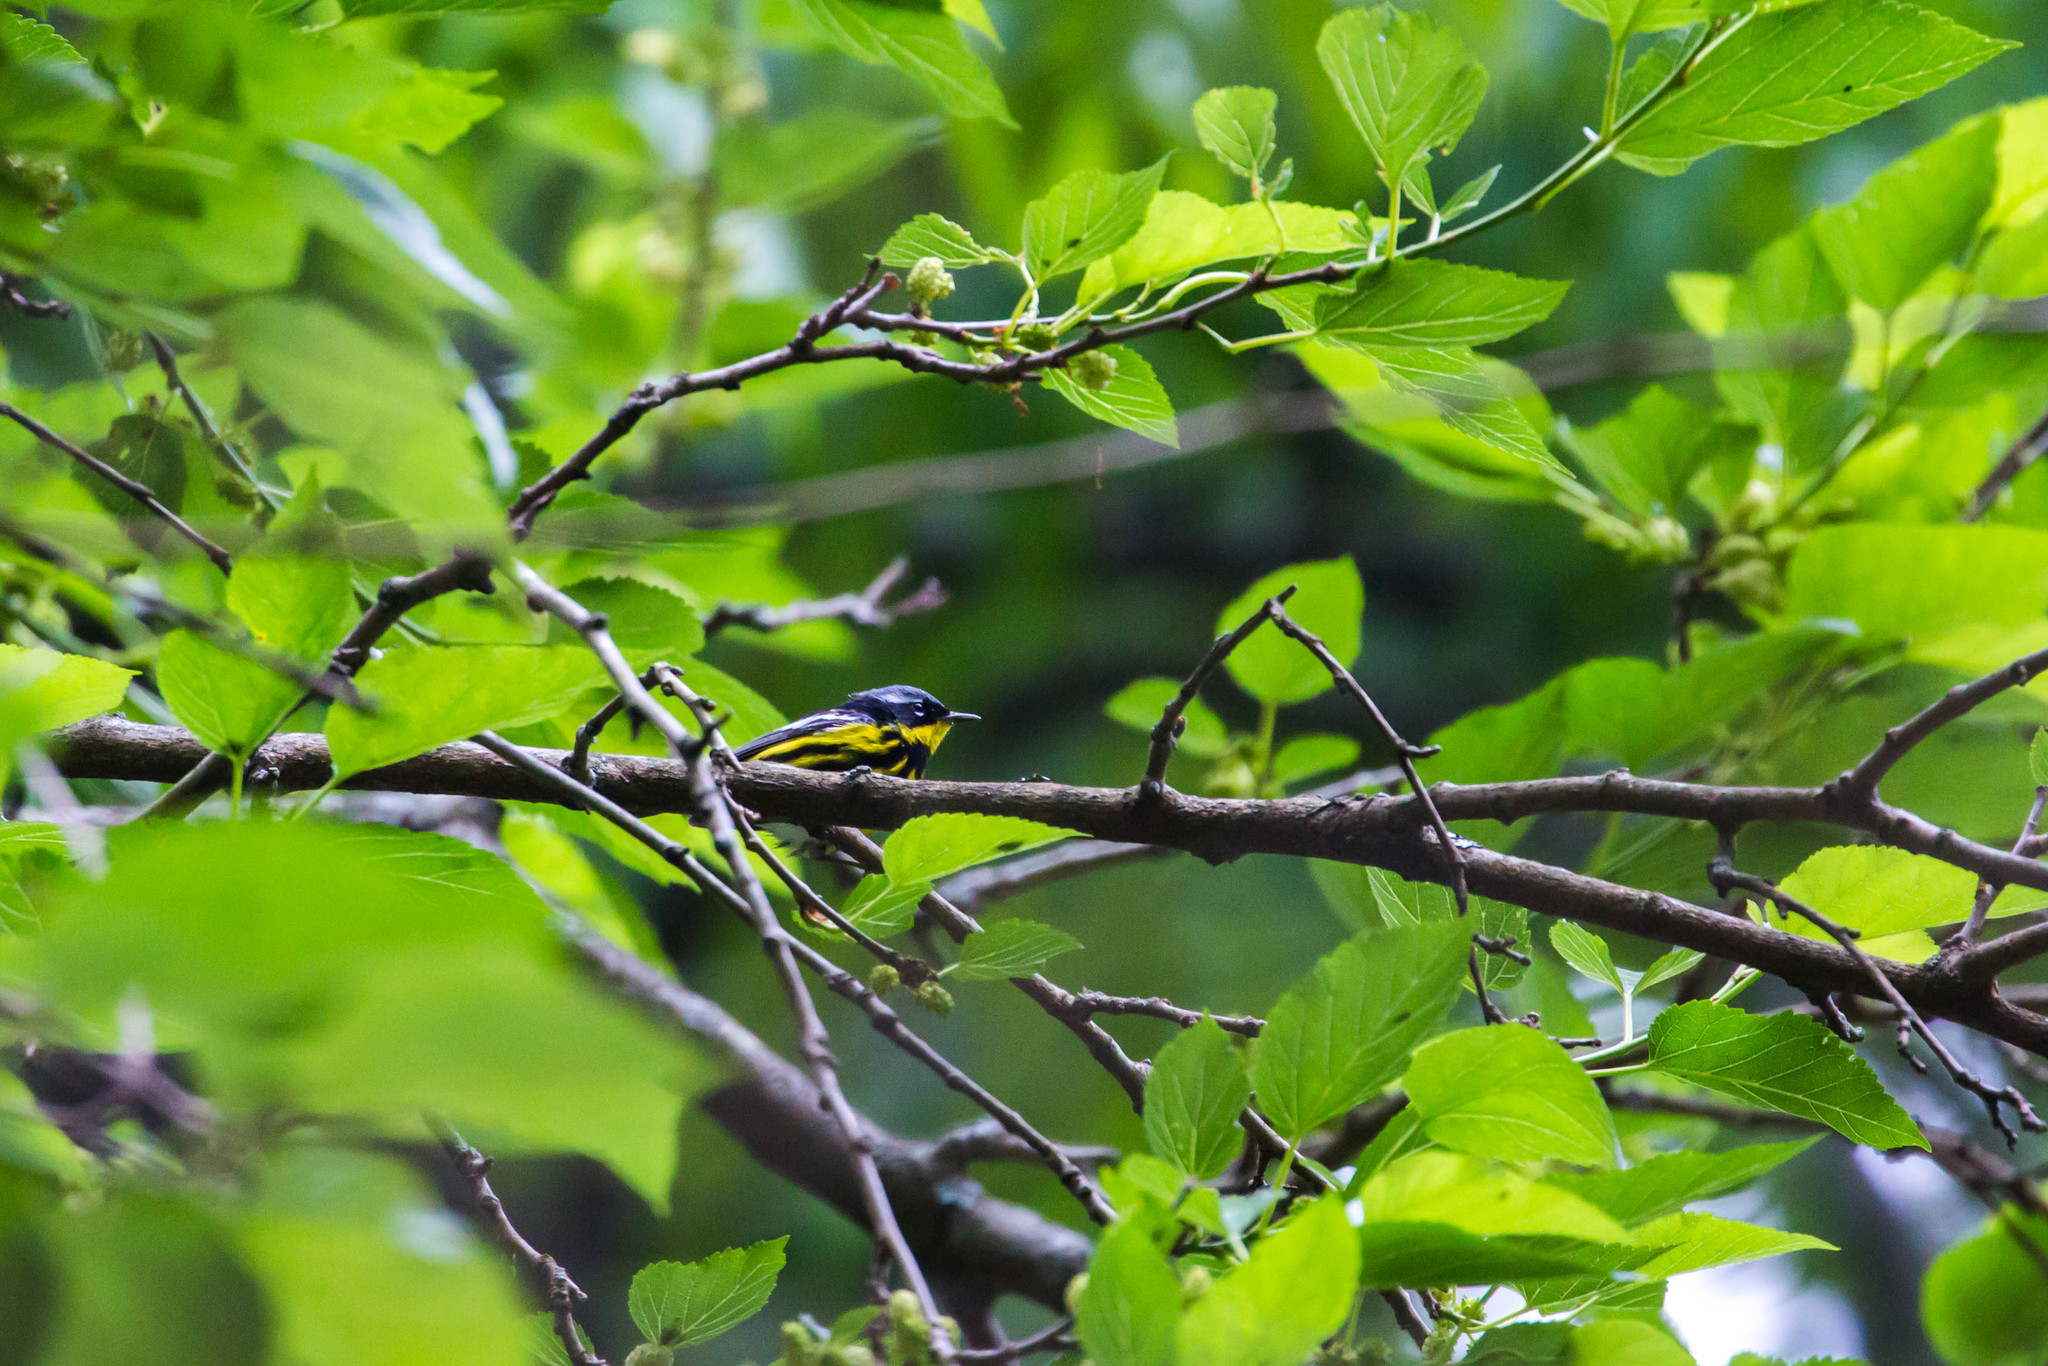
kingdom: Animalia
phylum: Chordata
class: Aves
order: Passeriformes
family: Parulidae
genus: Setophaga
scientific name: Setophaga magnolia
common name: Magnolia warbler
